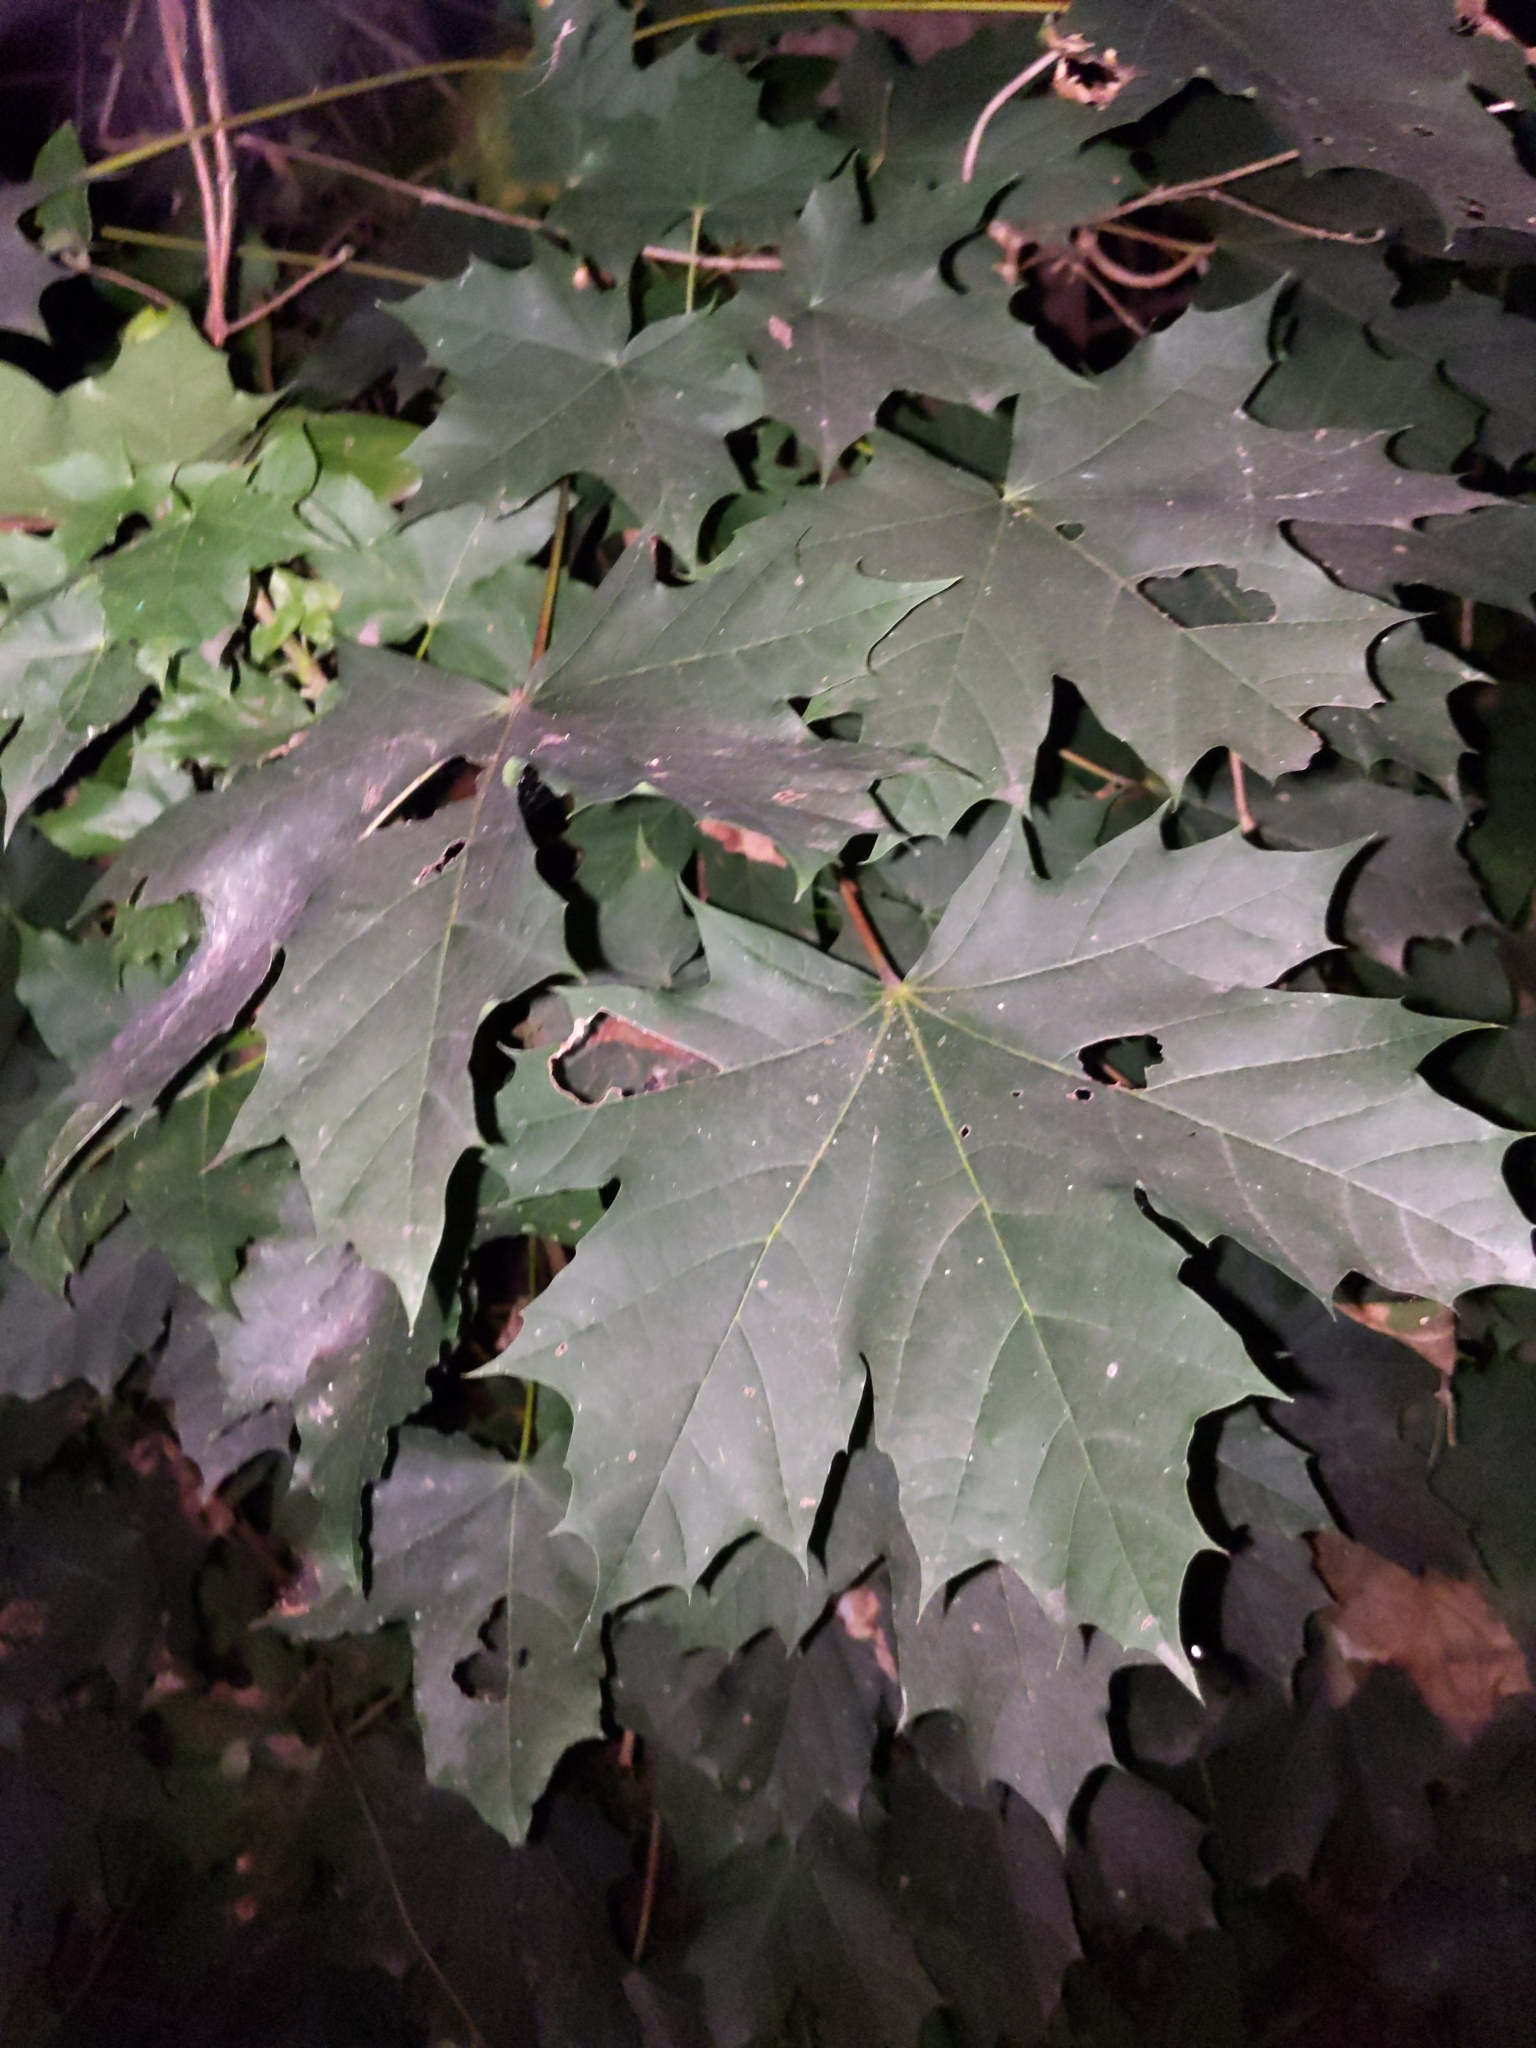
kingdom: Plantae
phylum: Tracheophyta
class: Magnoliopsida
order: Sapindales
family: Sapindaceae
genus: Acer
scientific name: Acer platanoides
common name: Norway maple
